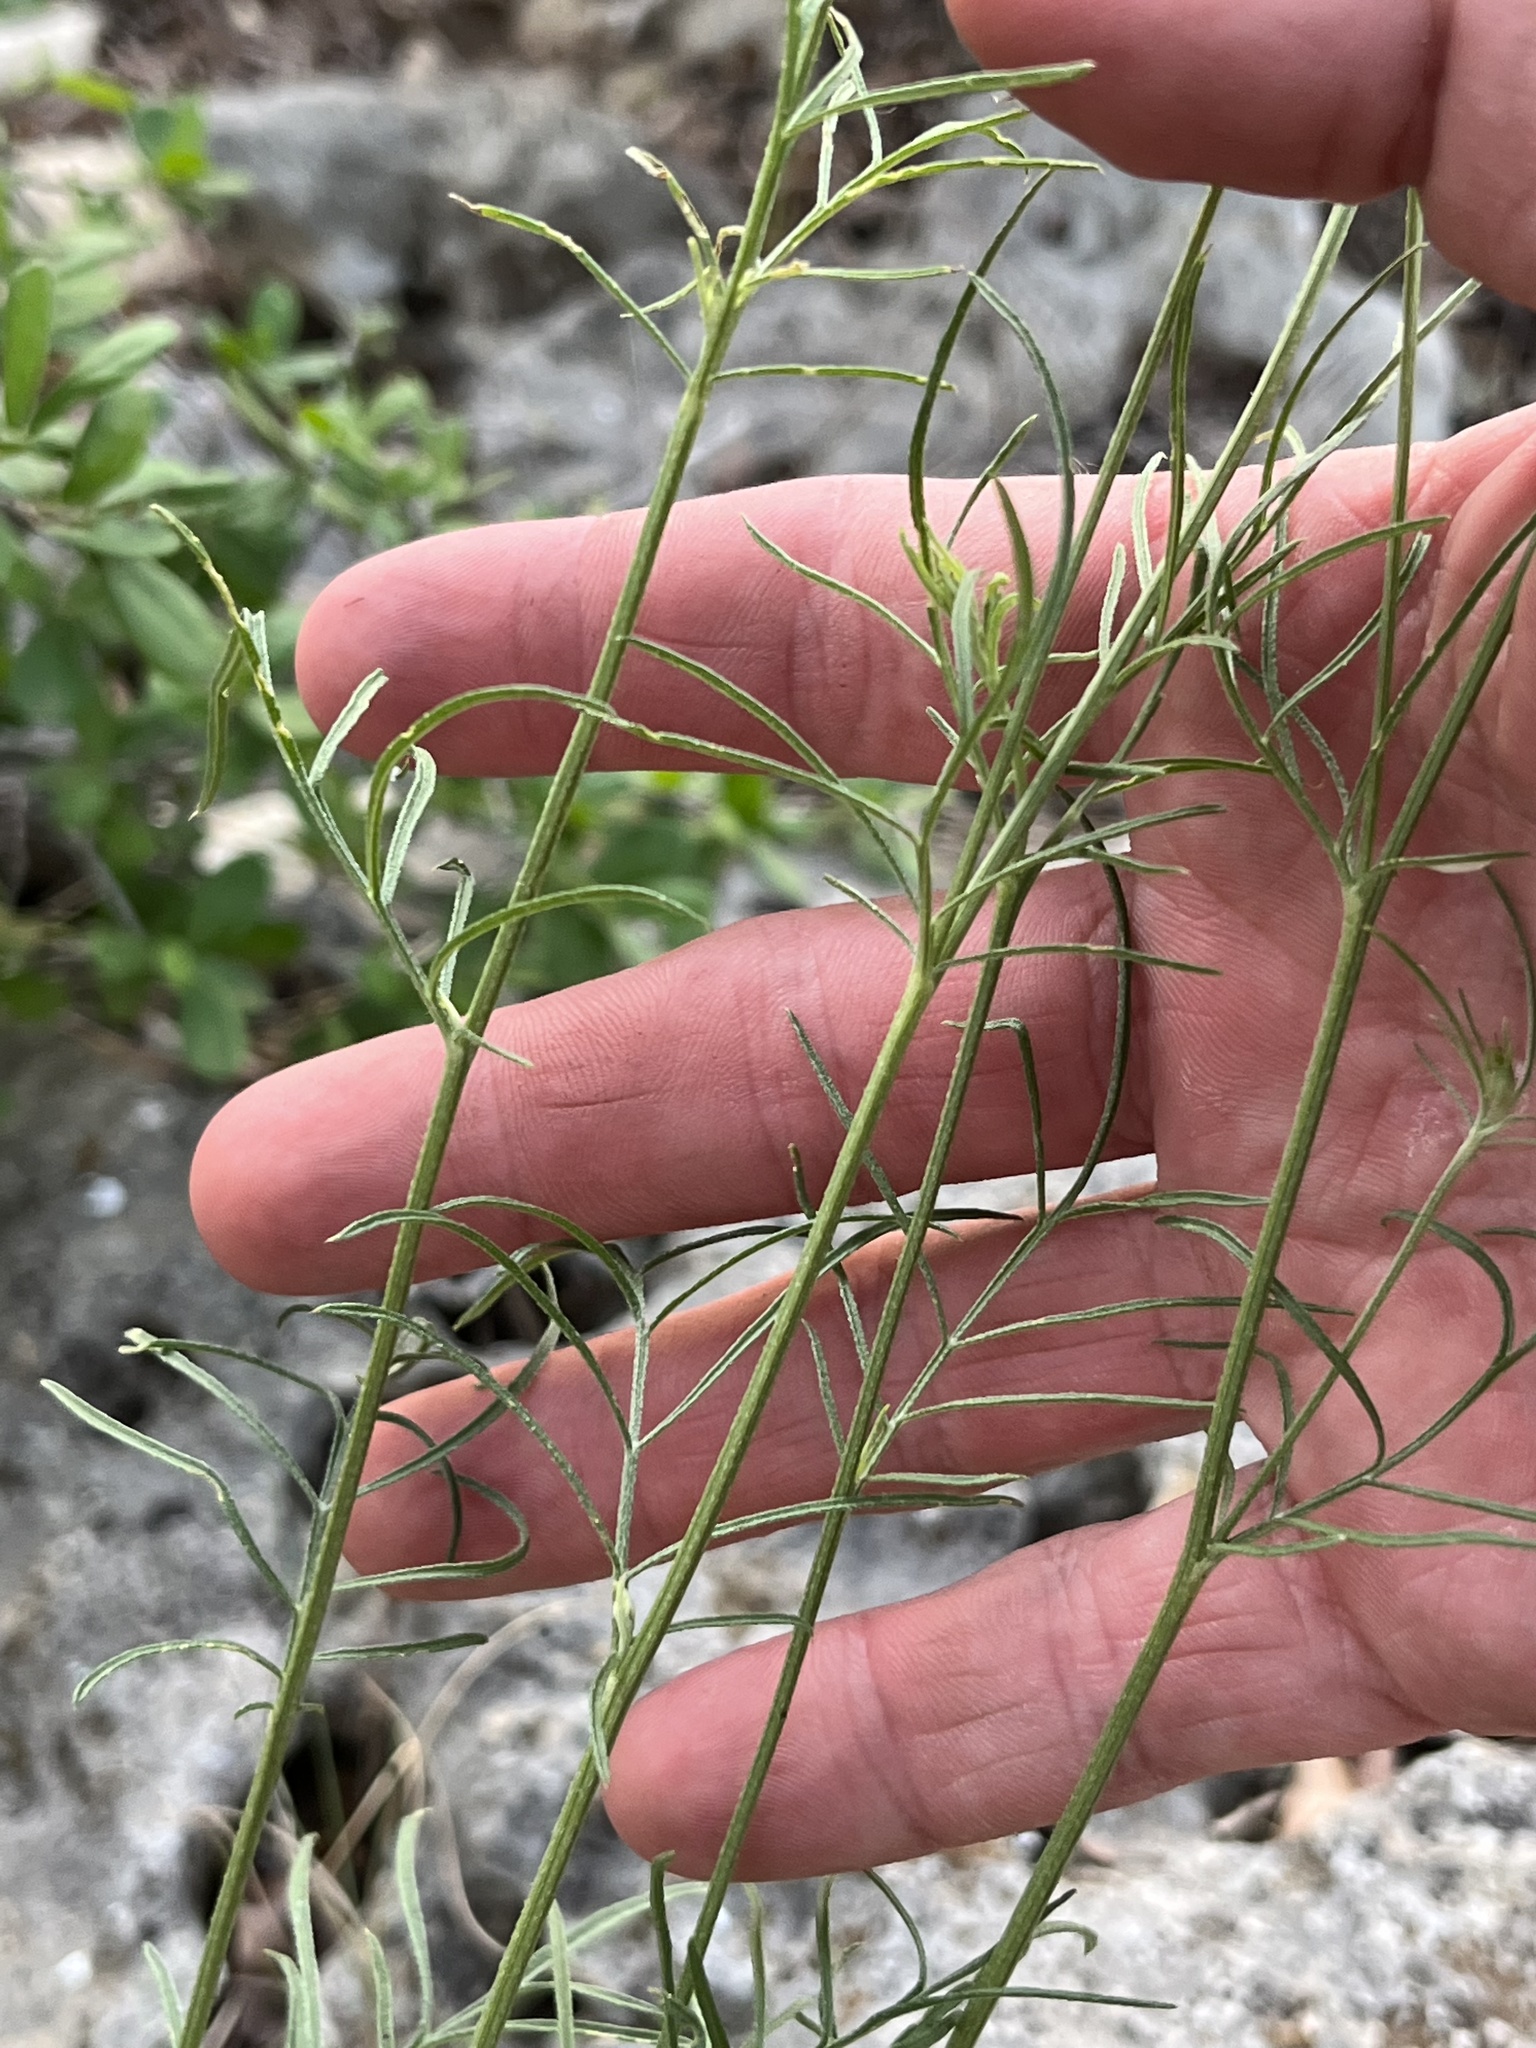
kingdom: Plantae
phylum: Tracheophyta
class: Magnoliopsida
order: Asterales
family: Asteraceae
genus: Ratibida
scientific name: Ratibida columnifera
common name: Prairie coneflower
